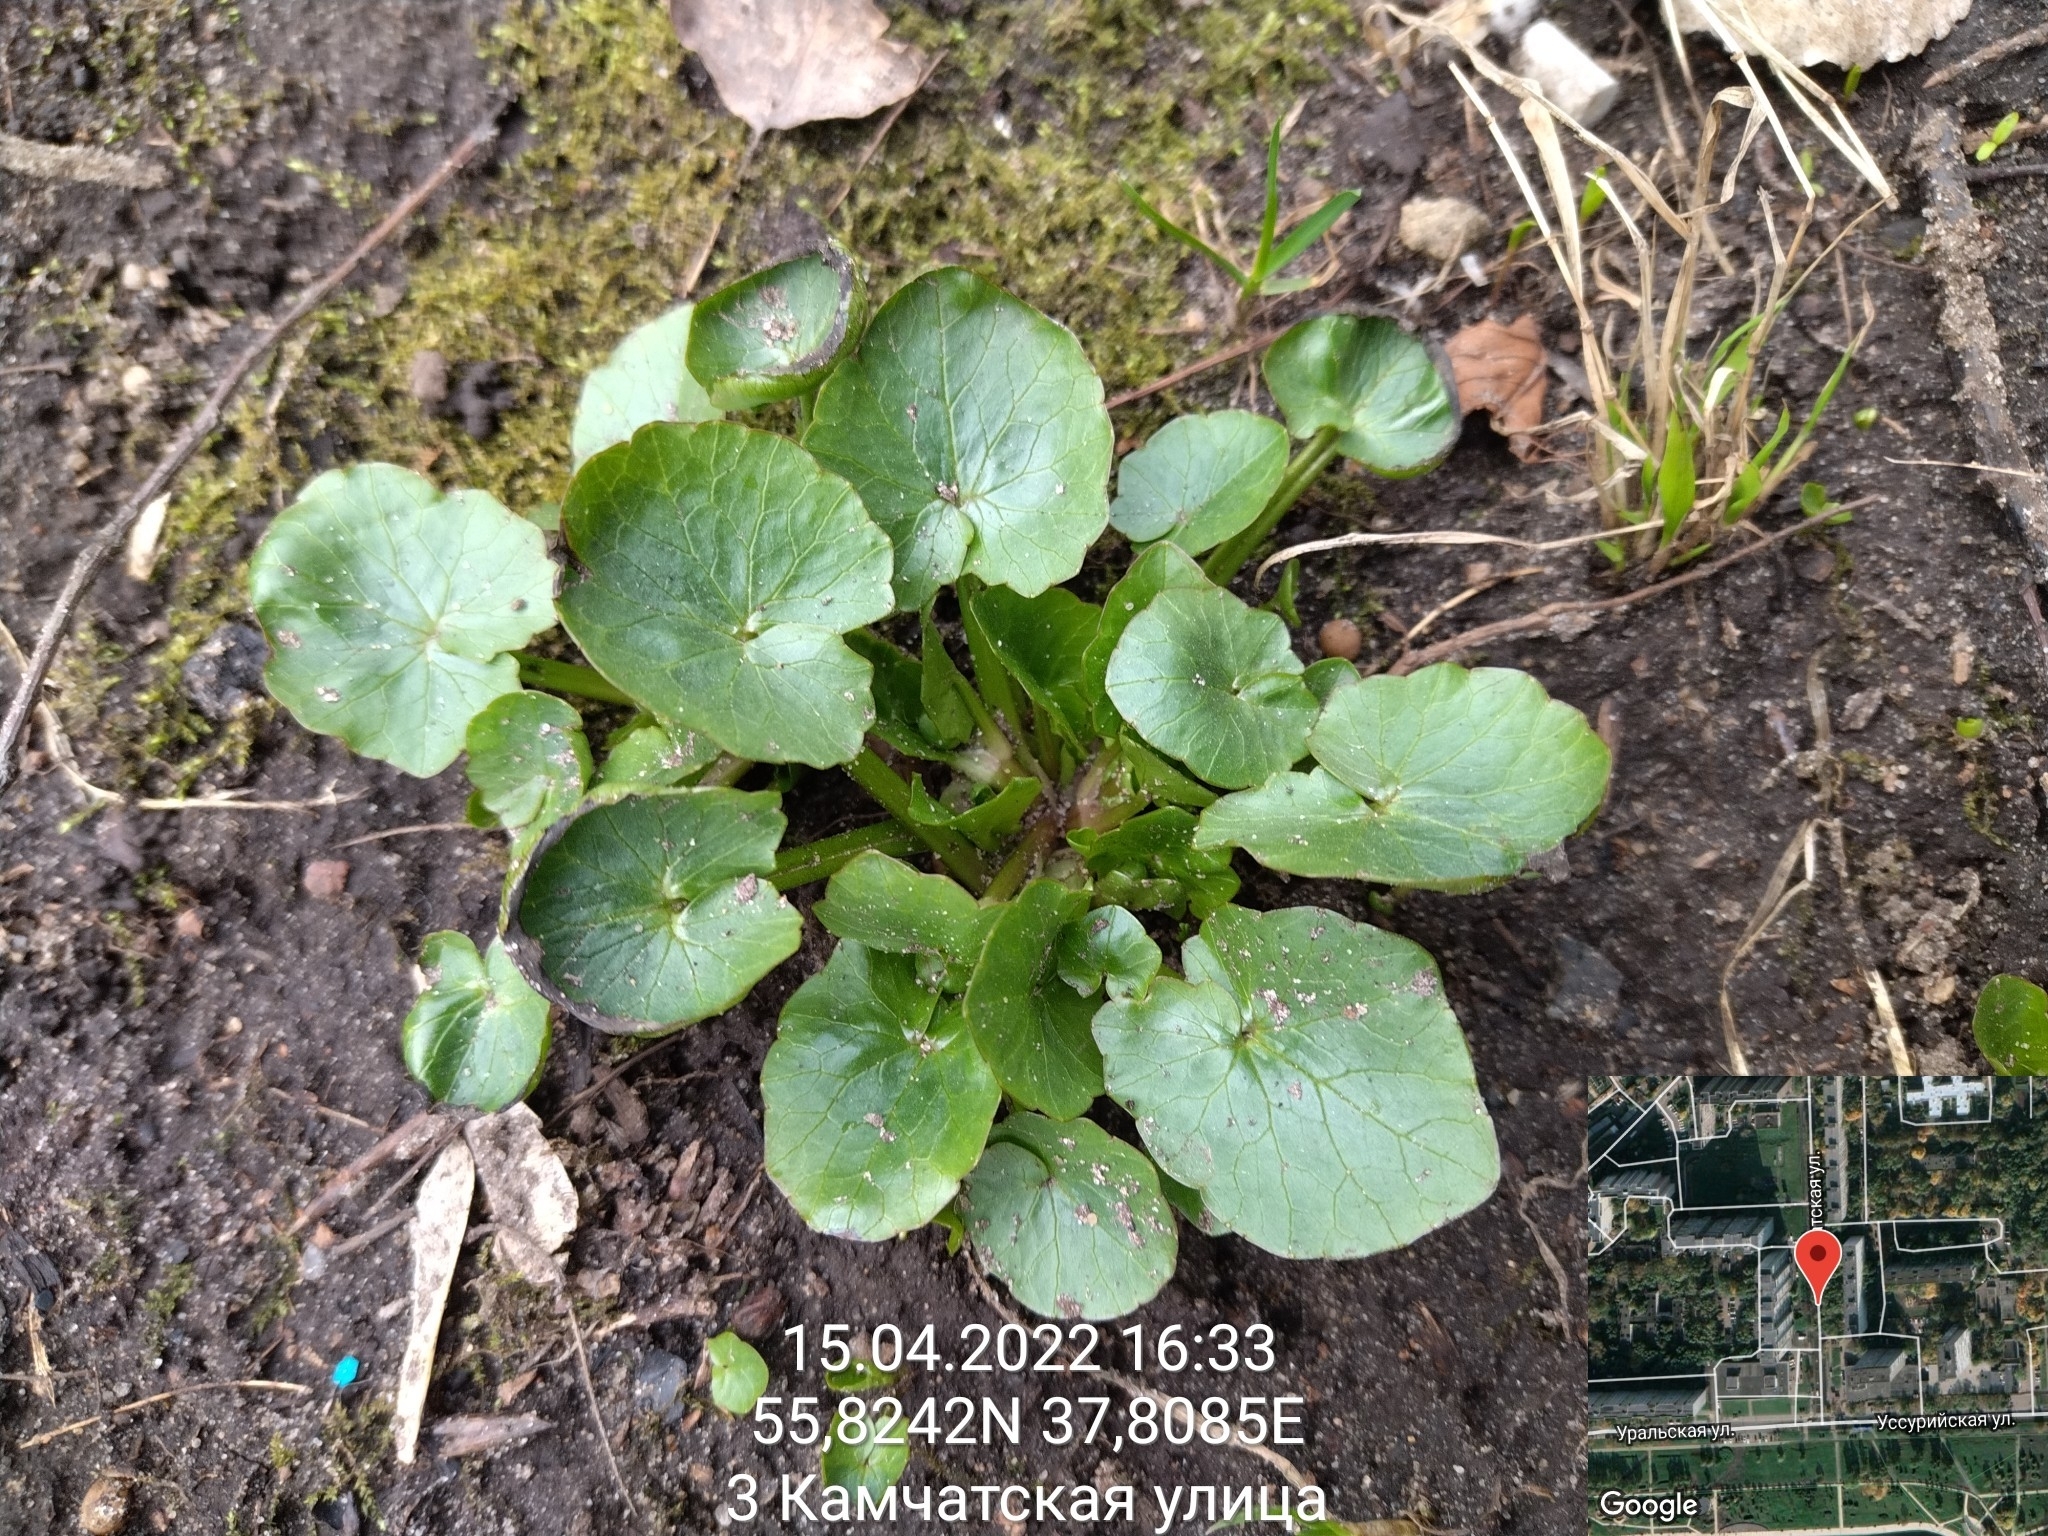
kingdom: Plantae
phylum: Tracheophyta
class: Magnoliopsida
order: Ranunculales
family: Ranunculaceae
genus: Ficaria
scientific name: Ficaria verna
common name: Lesser celandine
